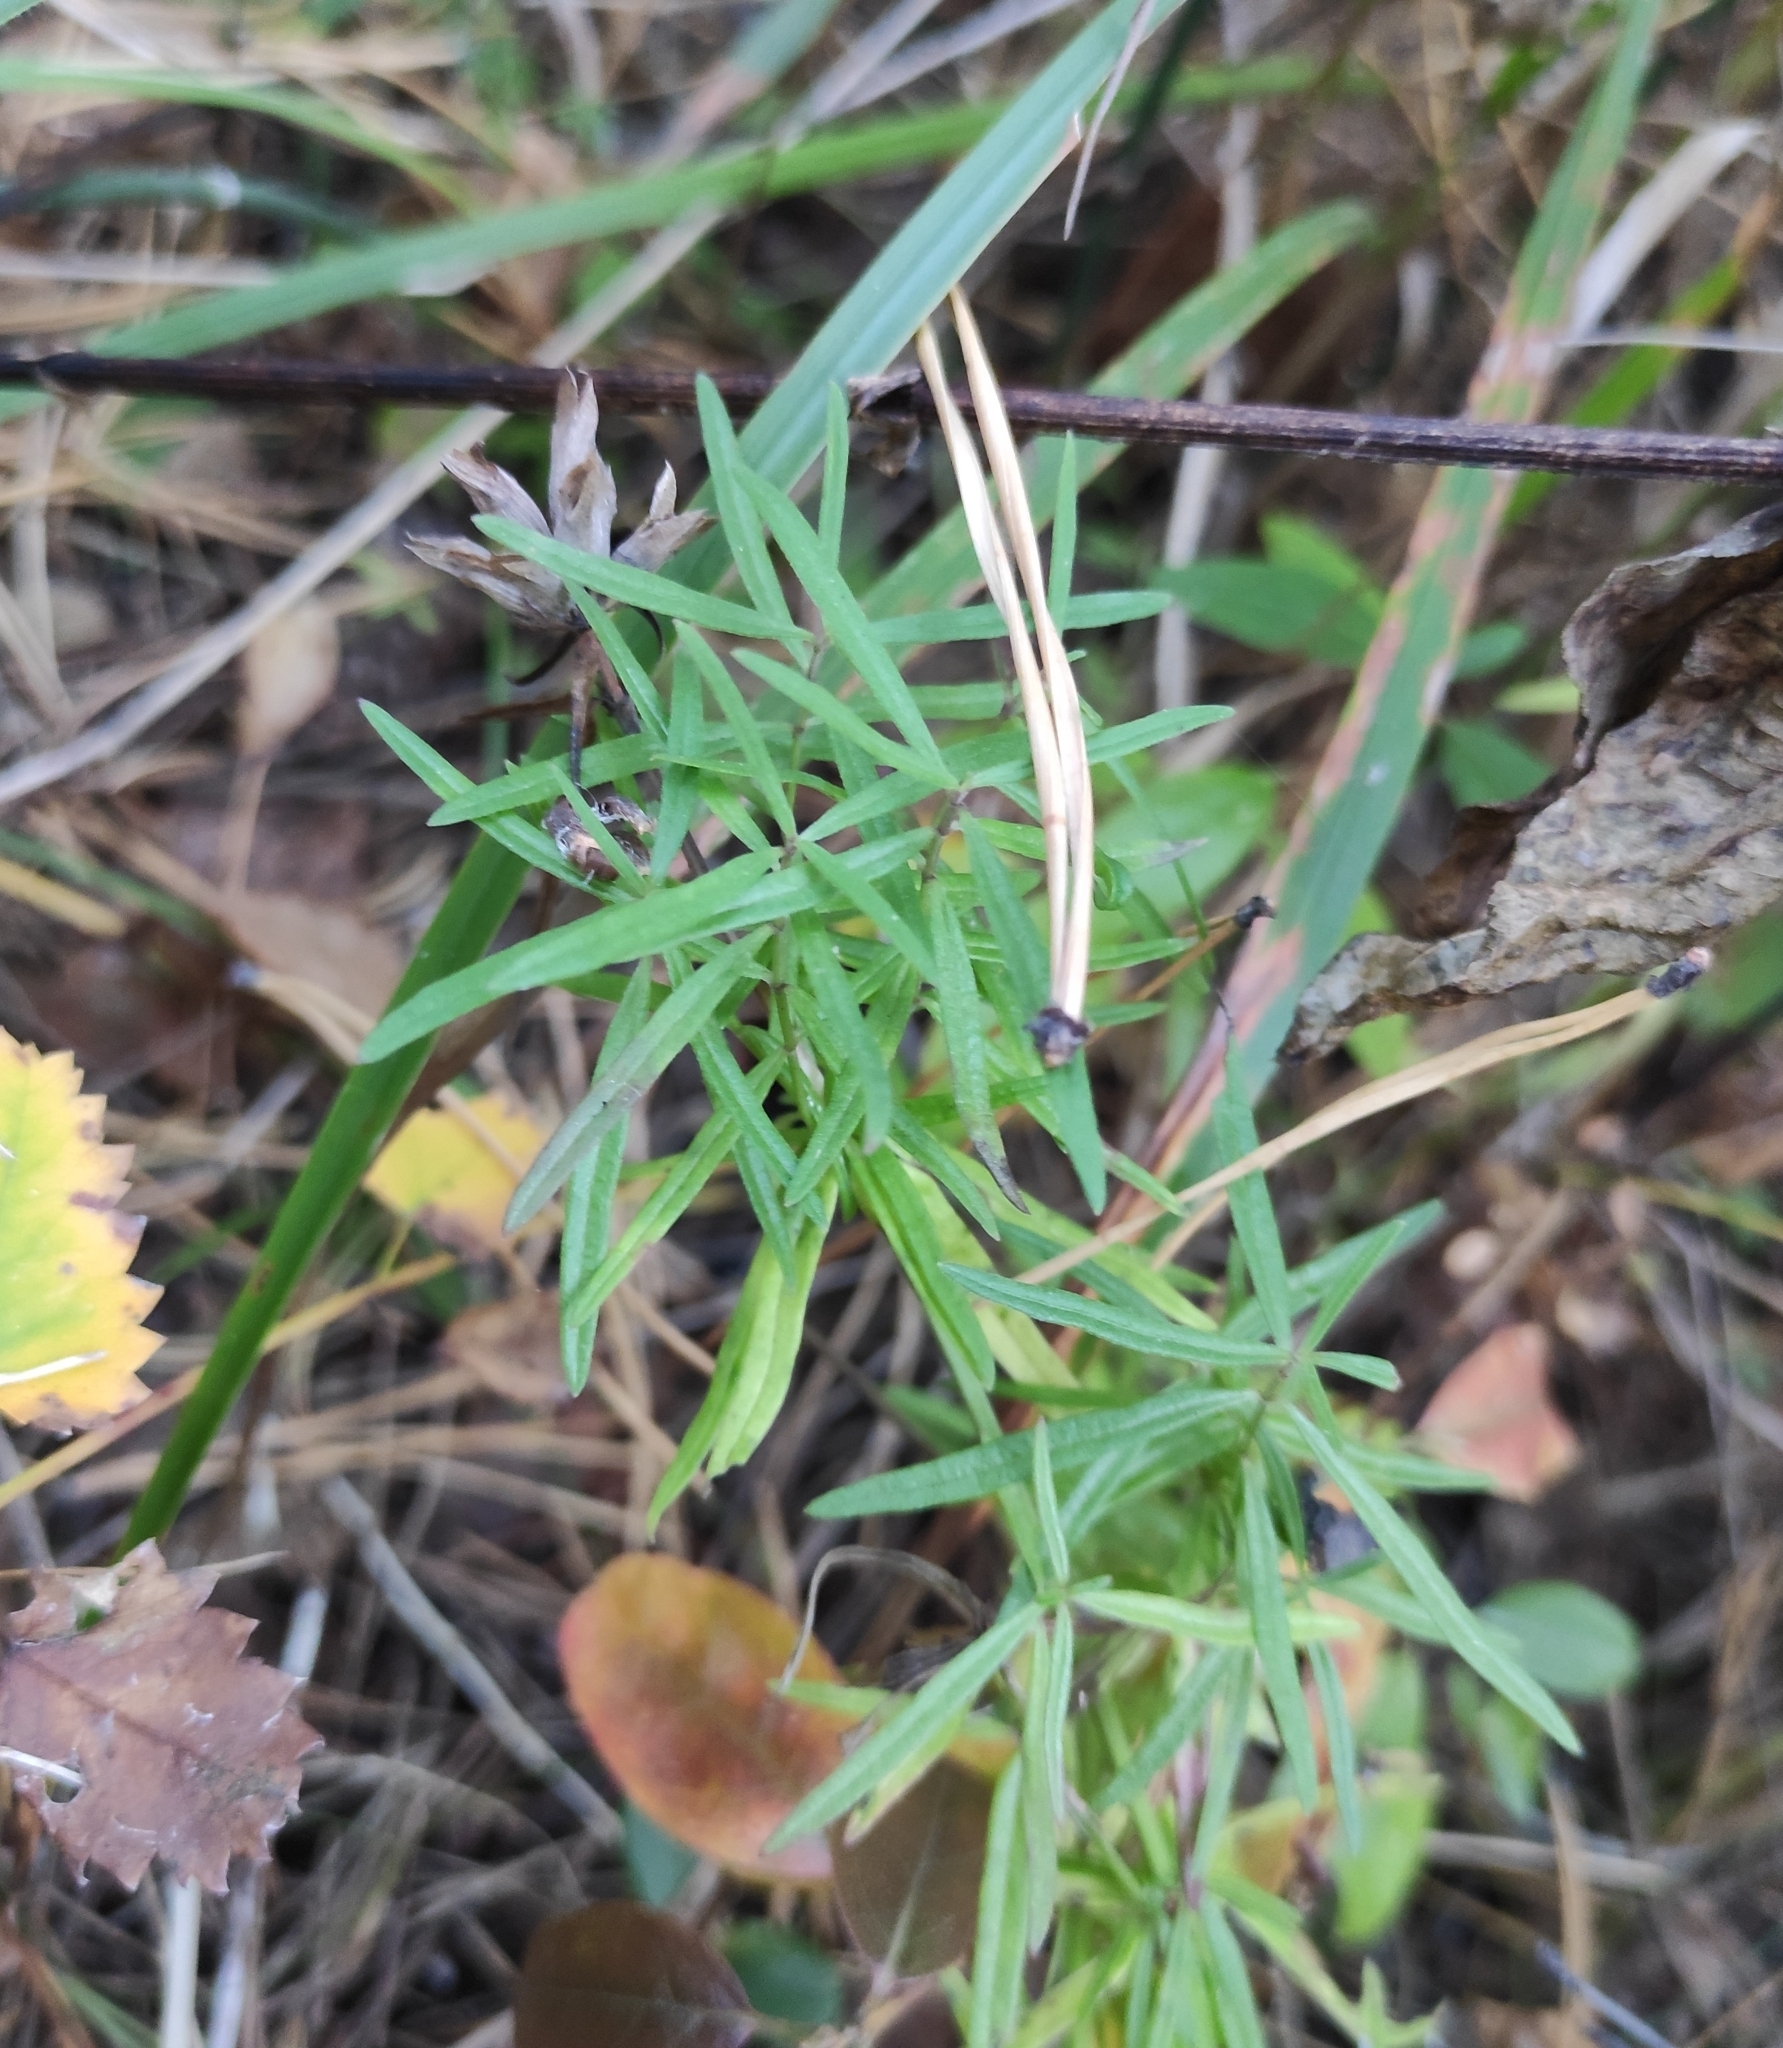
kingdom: Plantae
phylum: Tracheophyta
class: Magnoliopsida
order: Lamiales
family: Lamiaceae
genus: Dracocephalum
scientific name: Dracocephalum ruyschiana
